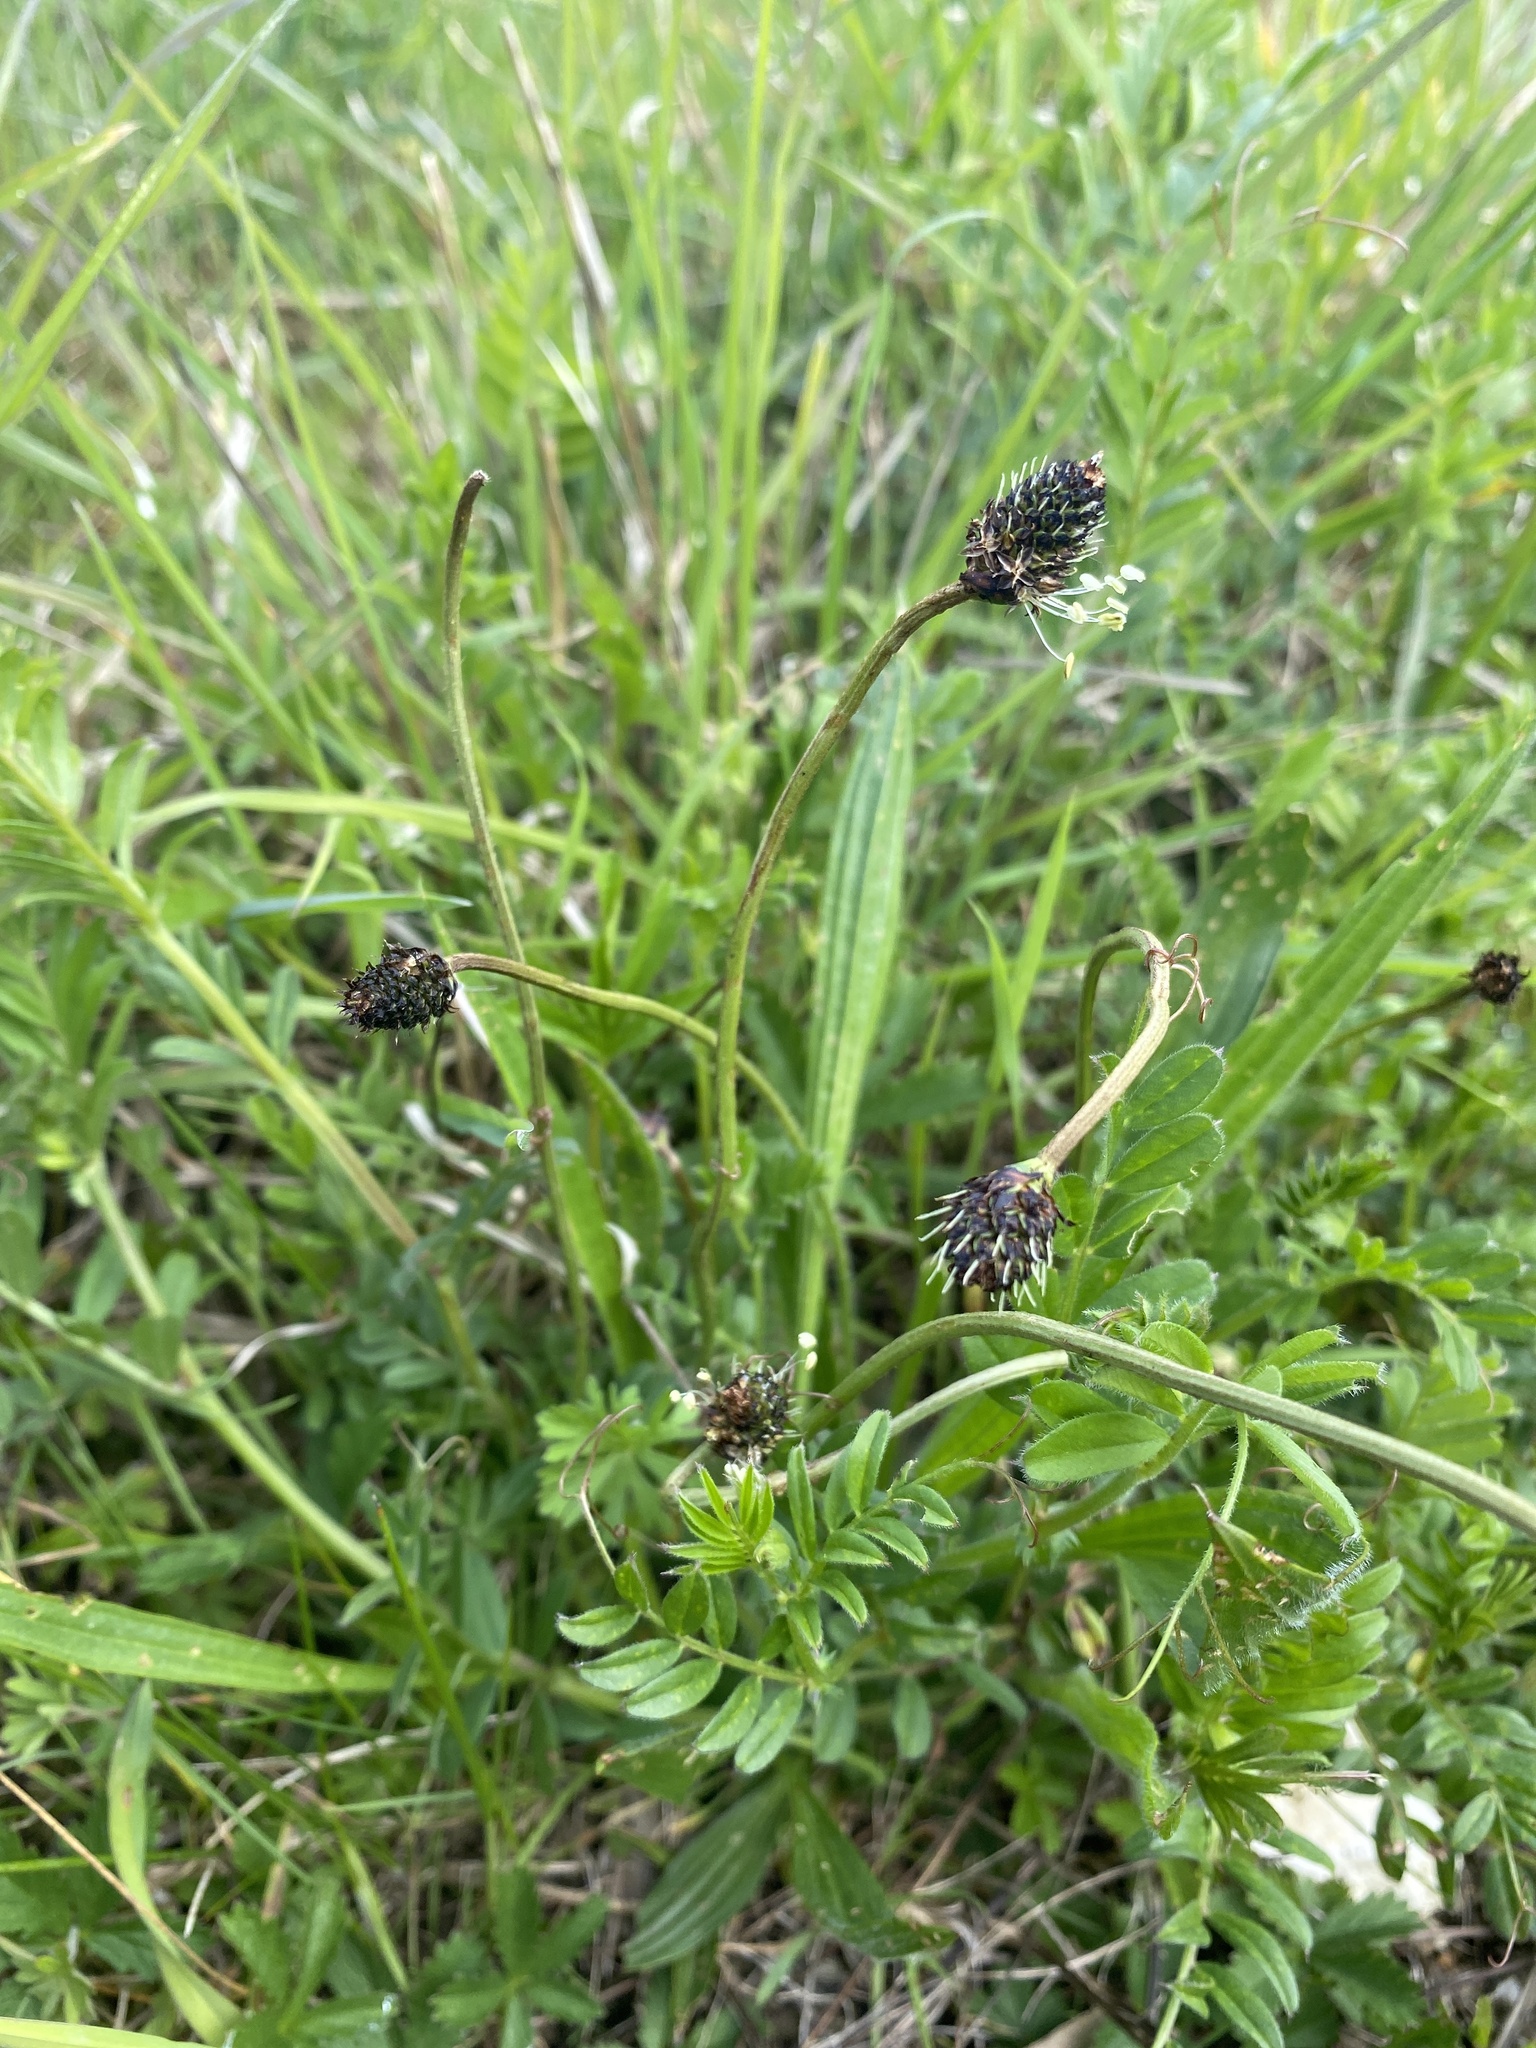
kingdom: Plantae
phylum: Tracheophyta
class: Magnoliopsida
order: Lamiales
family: Plantaginaceae
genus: Plantago
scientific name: Plantago lanceolata
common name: Ribwort plantain
